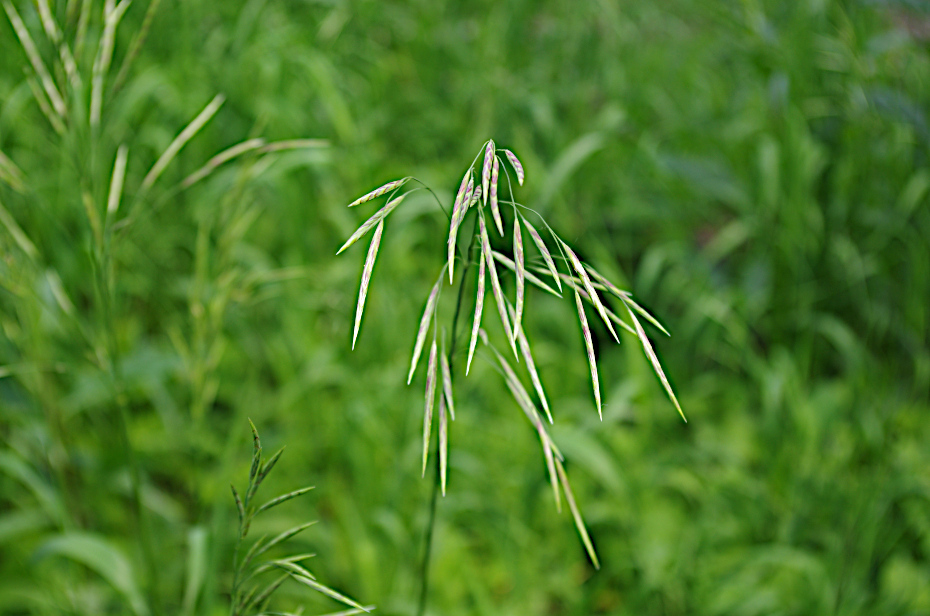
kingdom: Plantae
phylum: Tracheophyta
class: Liliopsida
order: Poales
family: Poaceae
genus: Bromus
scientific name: Bromus inermis
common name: Smooth brome
